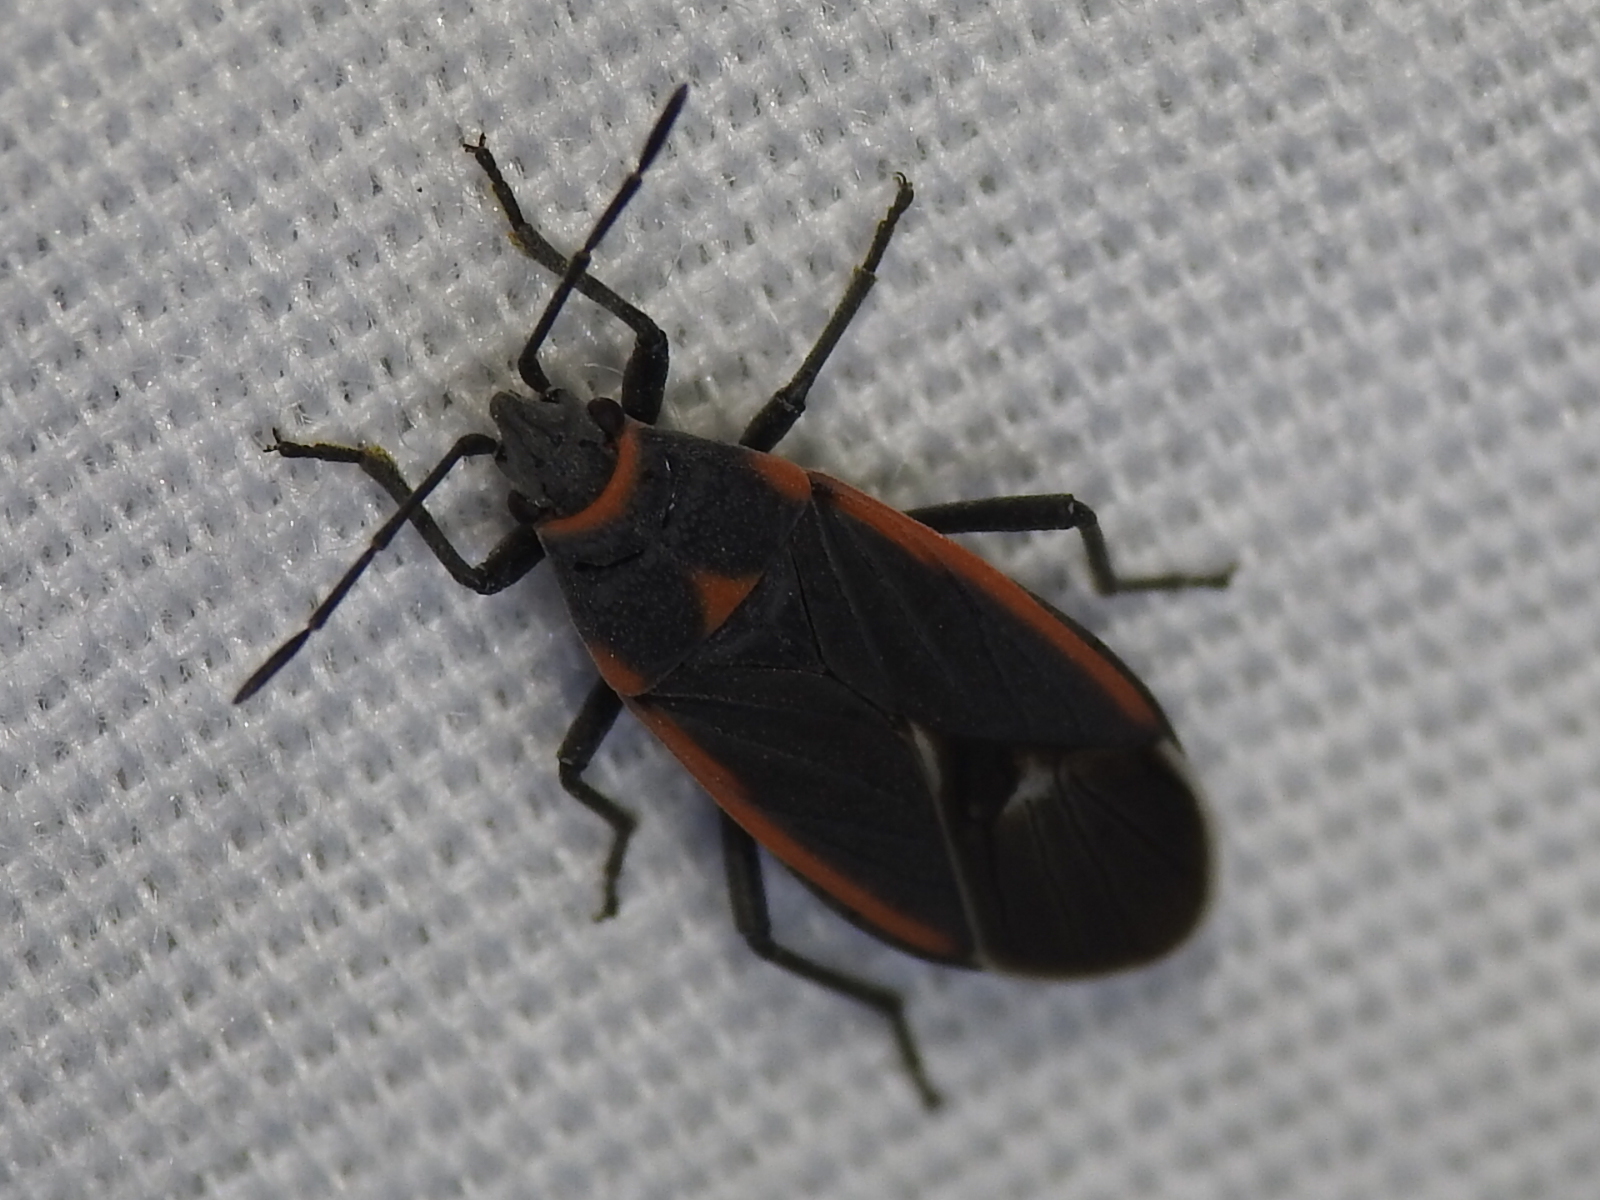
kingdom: Animalia
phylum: Arthropoda
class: Insecta
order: Hemiptera
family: Lygaeidae
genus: Melacoryphus
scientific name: Melacoryphus lateralis
